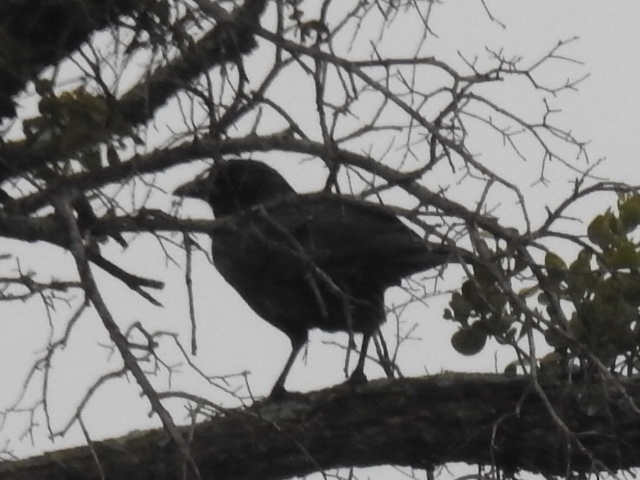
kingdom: Animalia
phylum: Chordata
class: Aves
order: Passeriformes
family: Corvidae
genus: Corvus
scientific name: Corvus brachyrhynchos
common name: American crow
